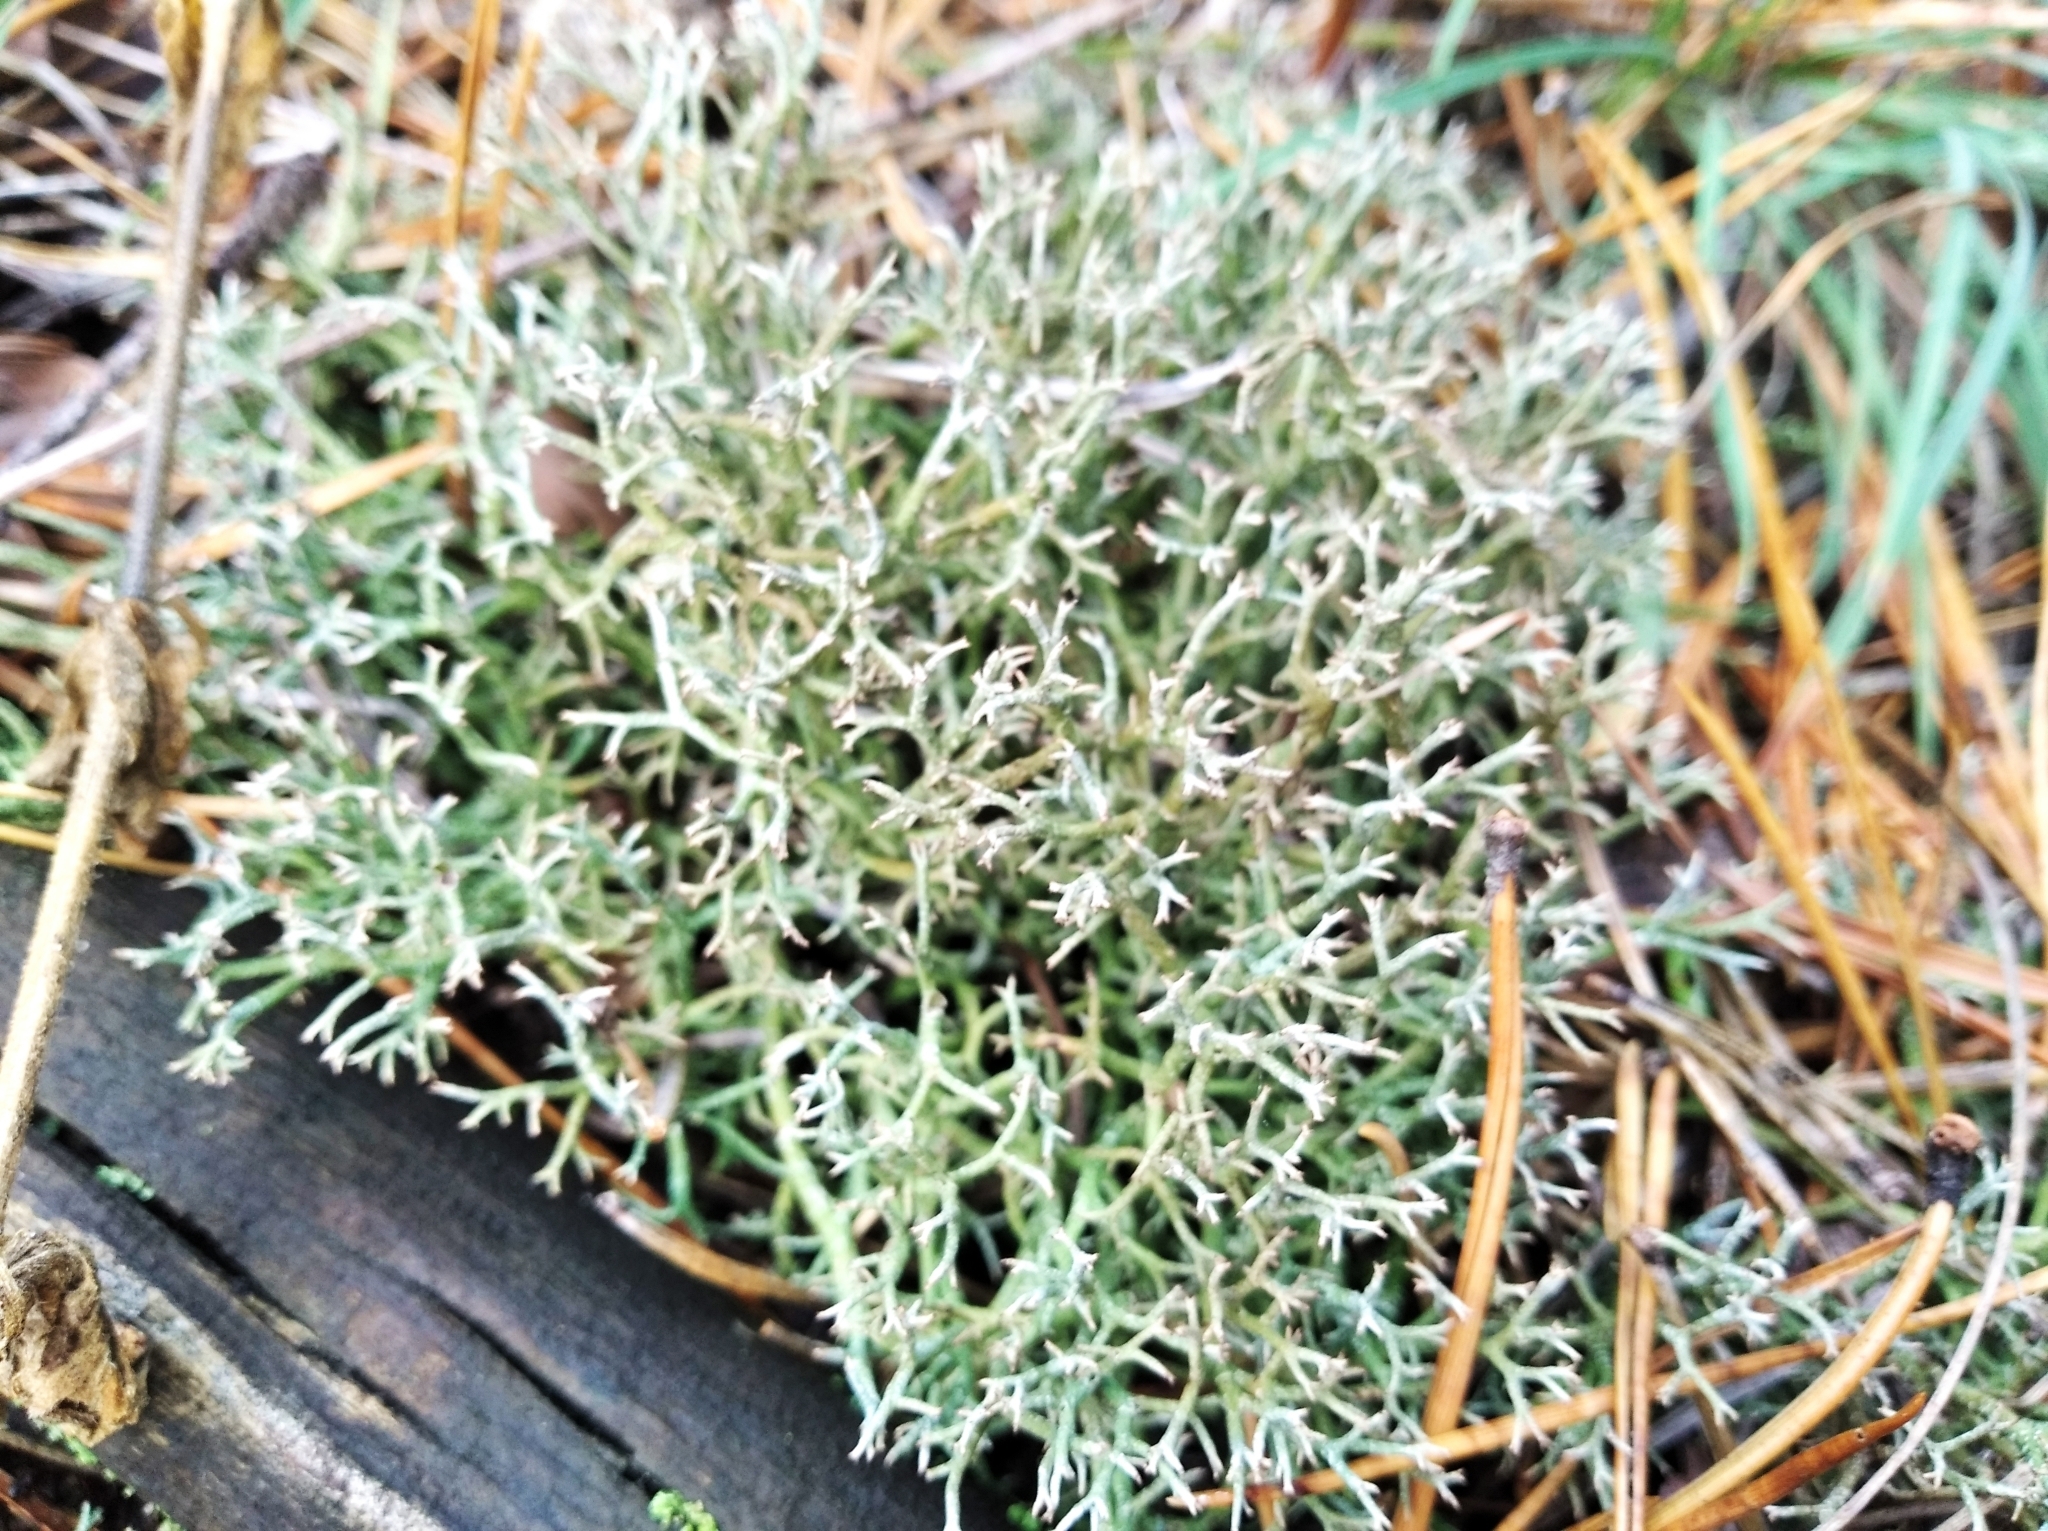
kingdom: Fungi
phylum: Ascomycota
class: Lecanoromycetes
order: Lecanorales
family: Cladoniaceae
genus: Cladonia
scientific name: Cladonia rangiformis
